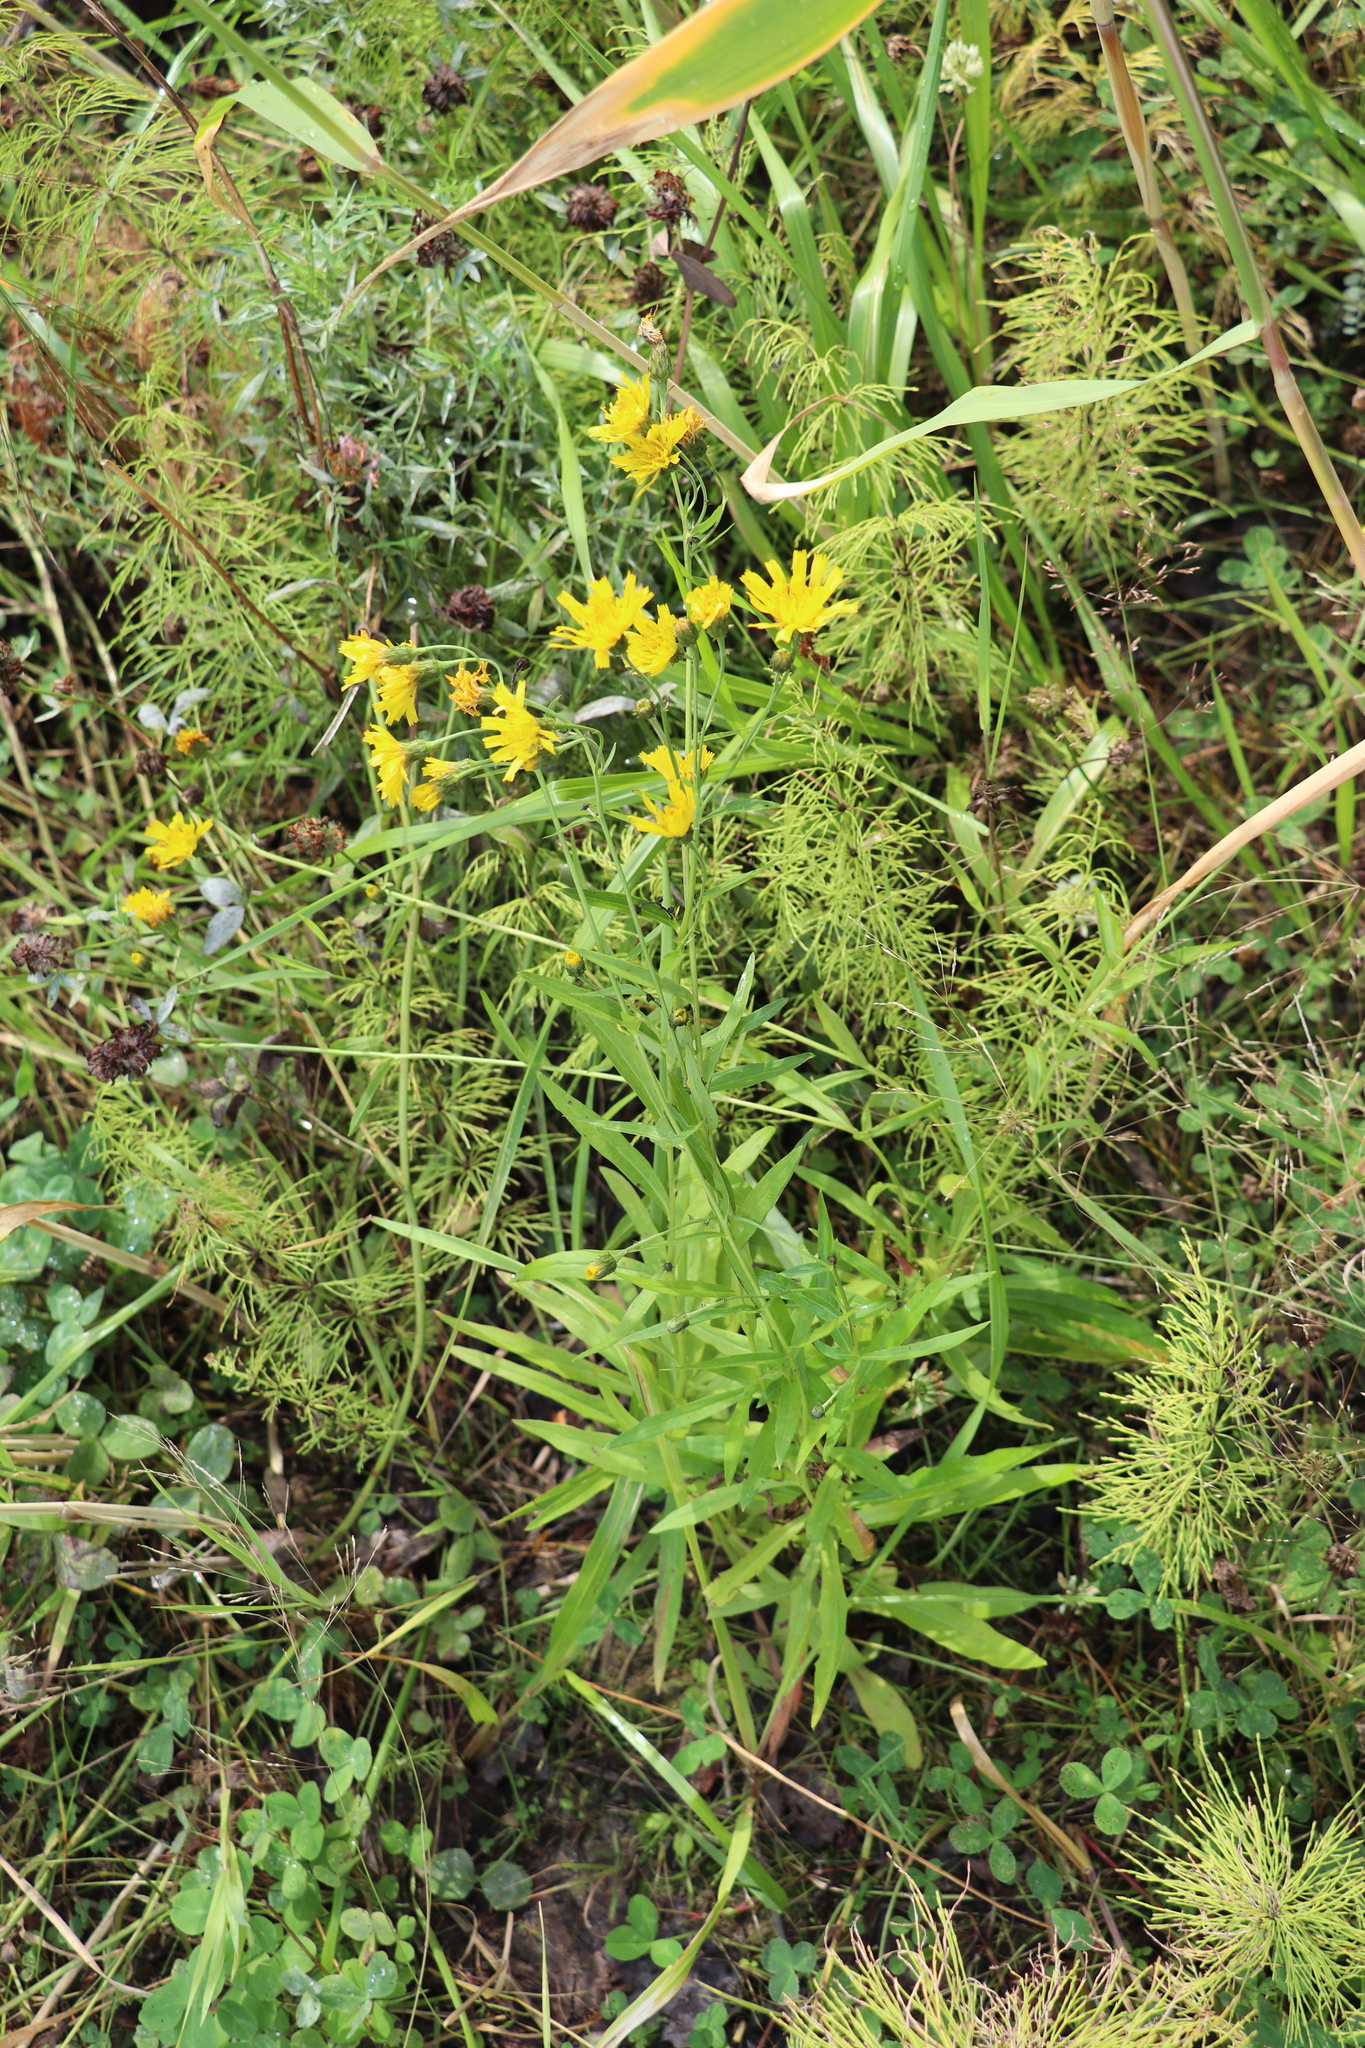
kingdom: Plantae
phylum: Tracheophyta
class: Magnoliopsida
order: Asterales
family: Asteraceae
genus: Hieracium
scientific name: Hieracium umbellatum
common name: Northern hawkweed
